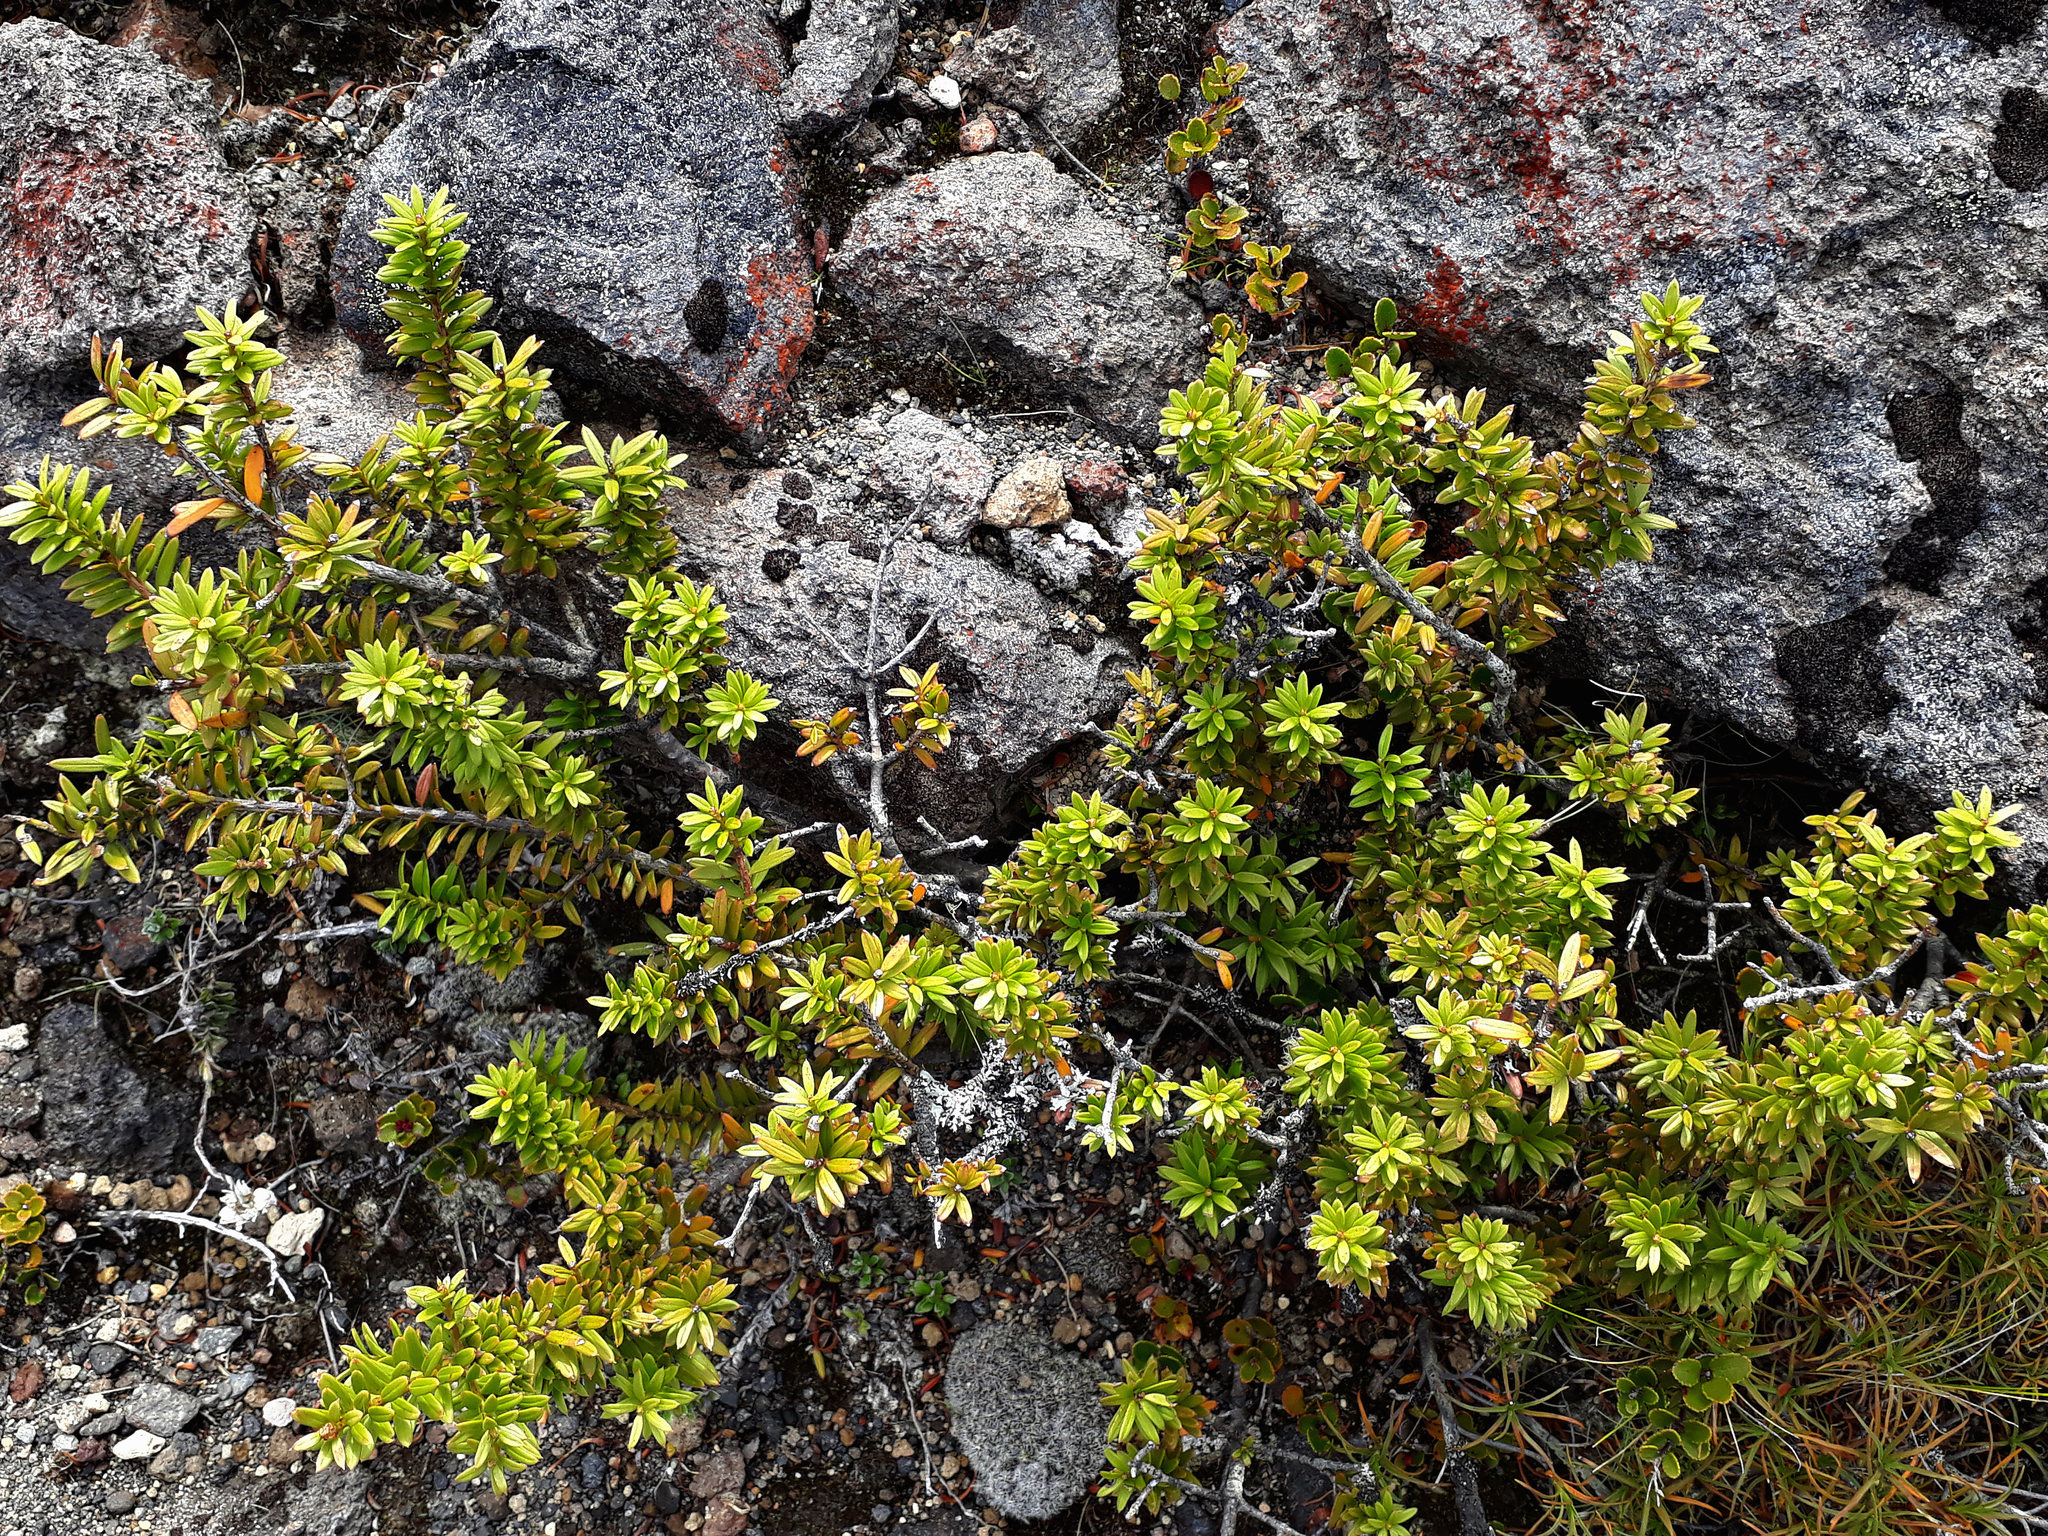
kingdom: Plantae
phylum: Tracheophyta
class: Pinopsida
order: Pinales
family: Podocarpaceae
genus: Podocarpus
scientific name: Podocarpus
